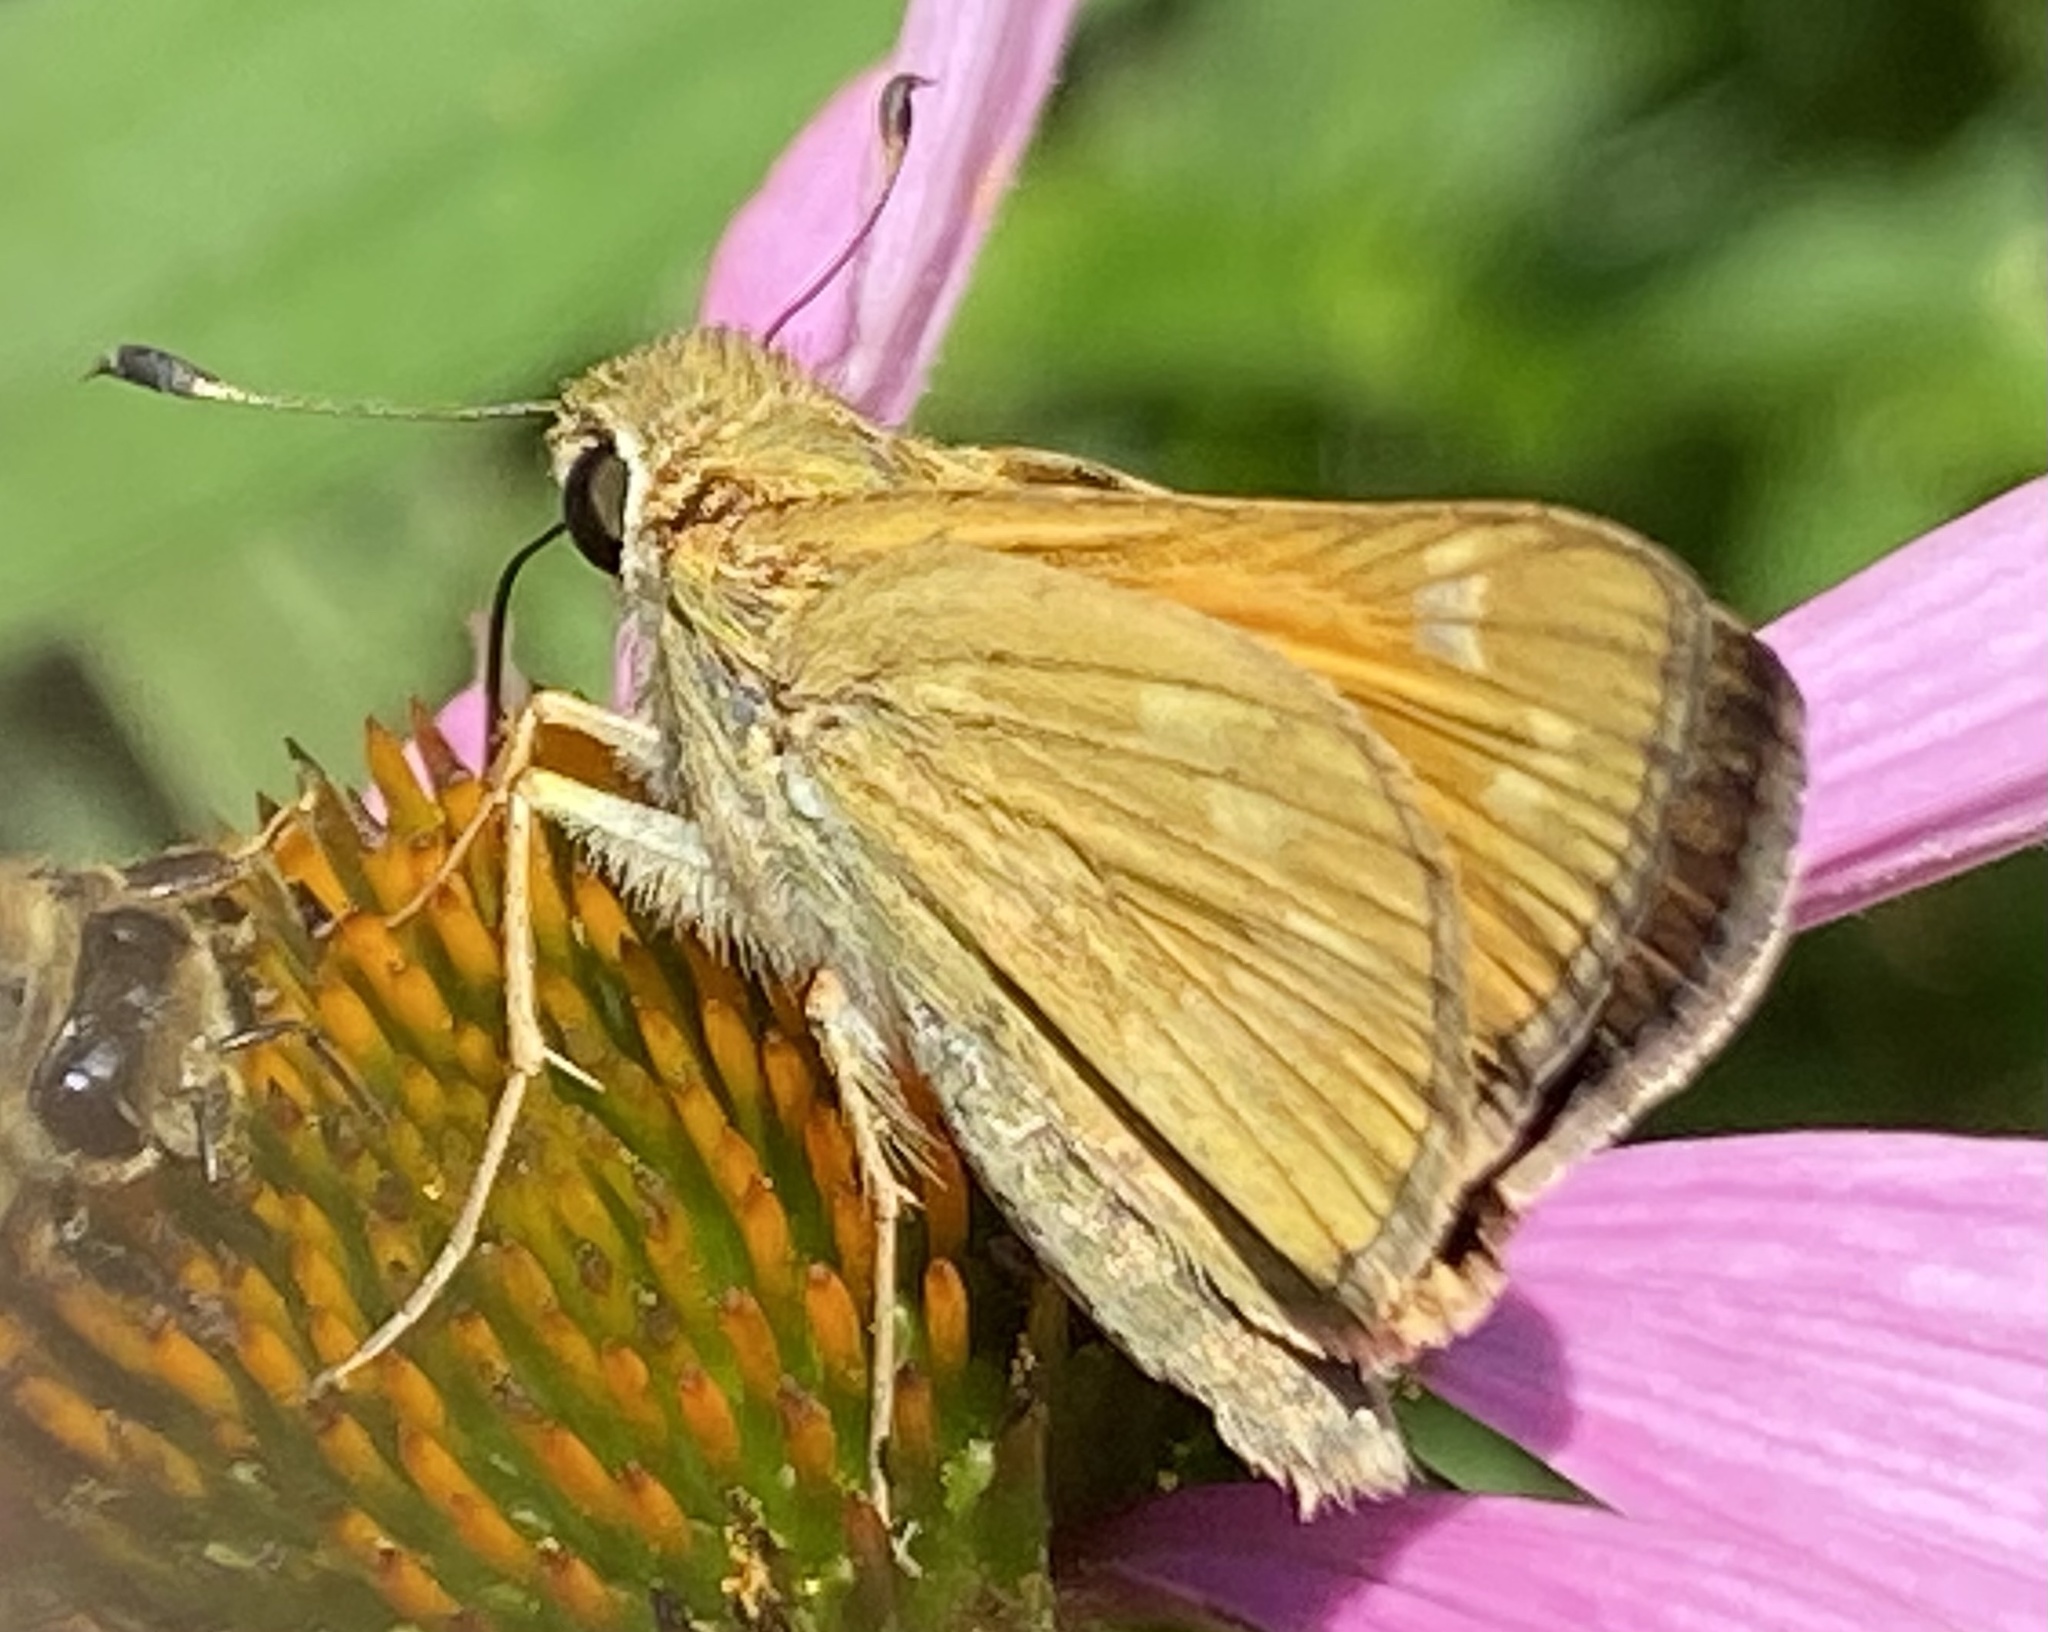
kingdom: Animalia
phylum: Arthropoda
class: Insecta
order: Lepidoptera
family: Hesperiidae
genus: Atalopedes
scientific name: Atalopedes
